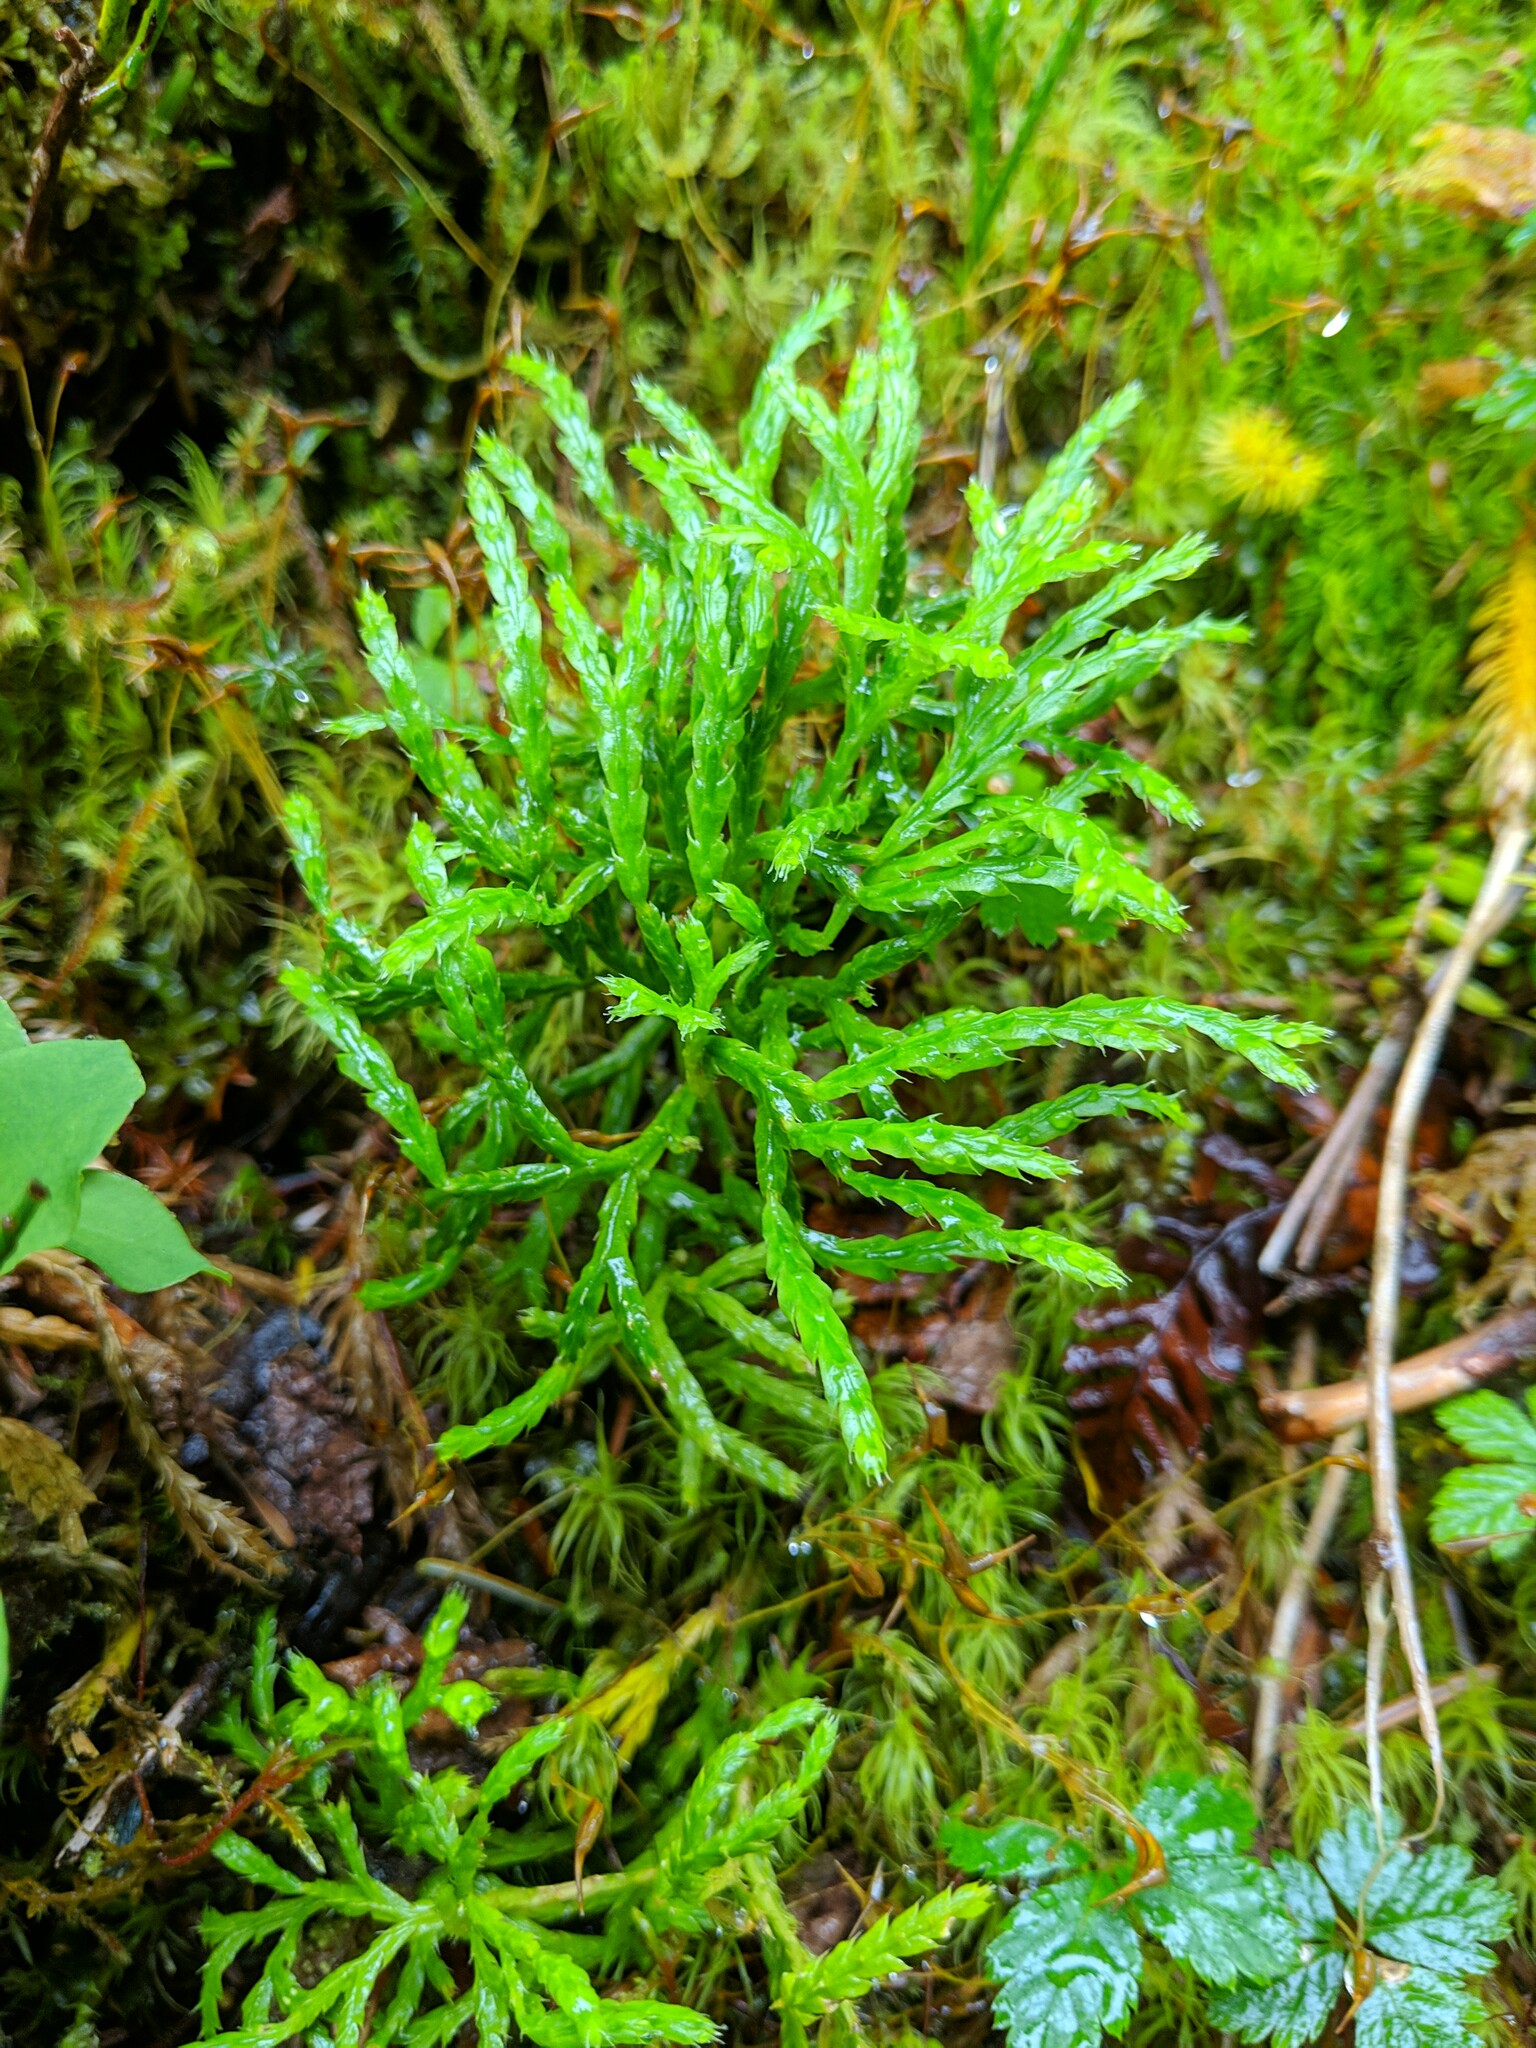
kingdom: Plantae
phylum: Tracheophyta
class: Lycopodiopsida
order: Lycopodiales
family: Lycopodiaceae
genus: Diphasiastrum
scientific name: Diphasiastrum complanatum
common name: Northern running-pine
